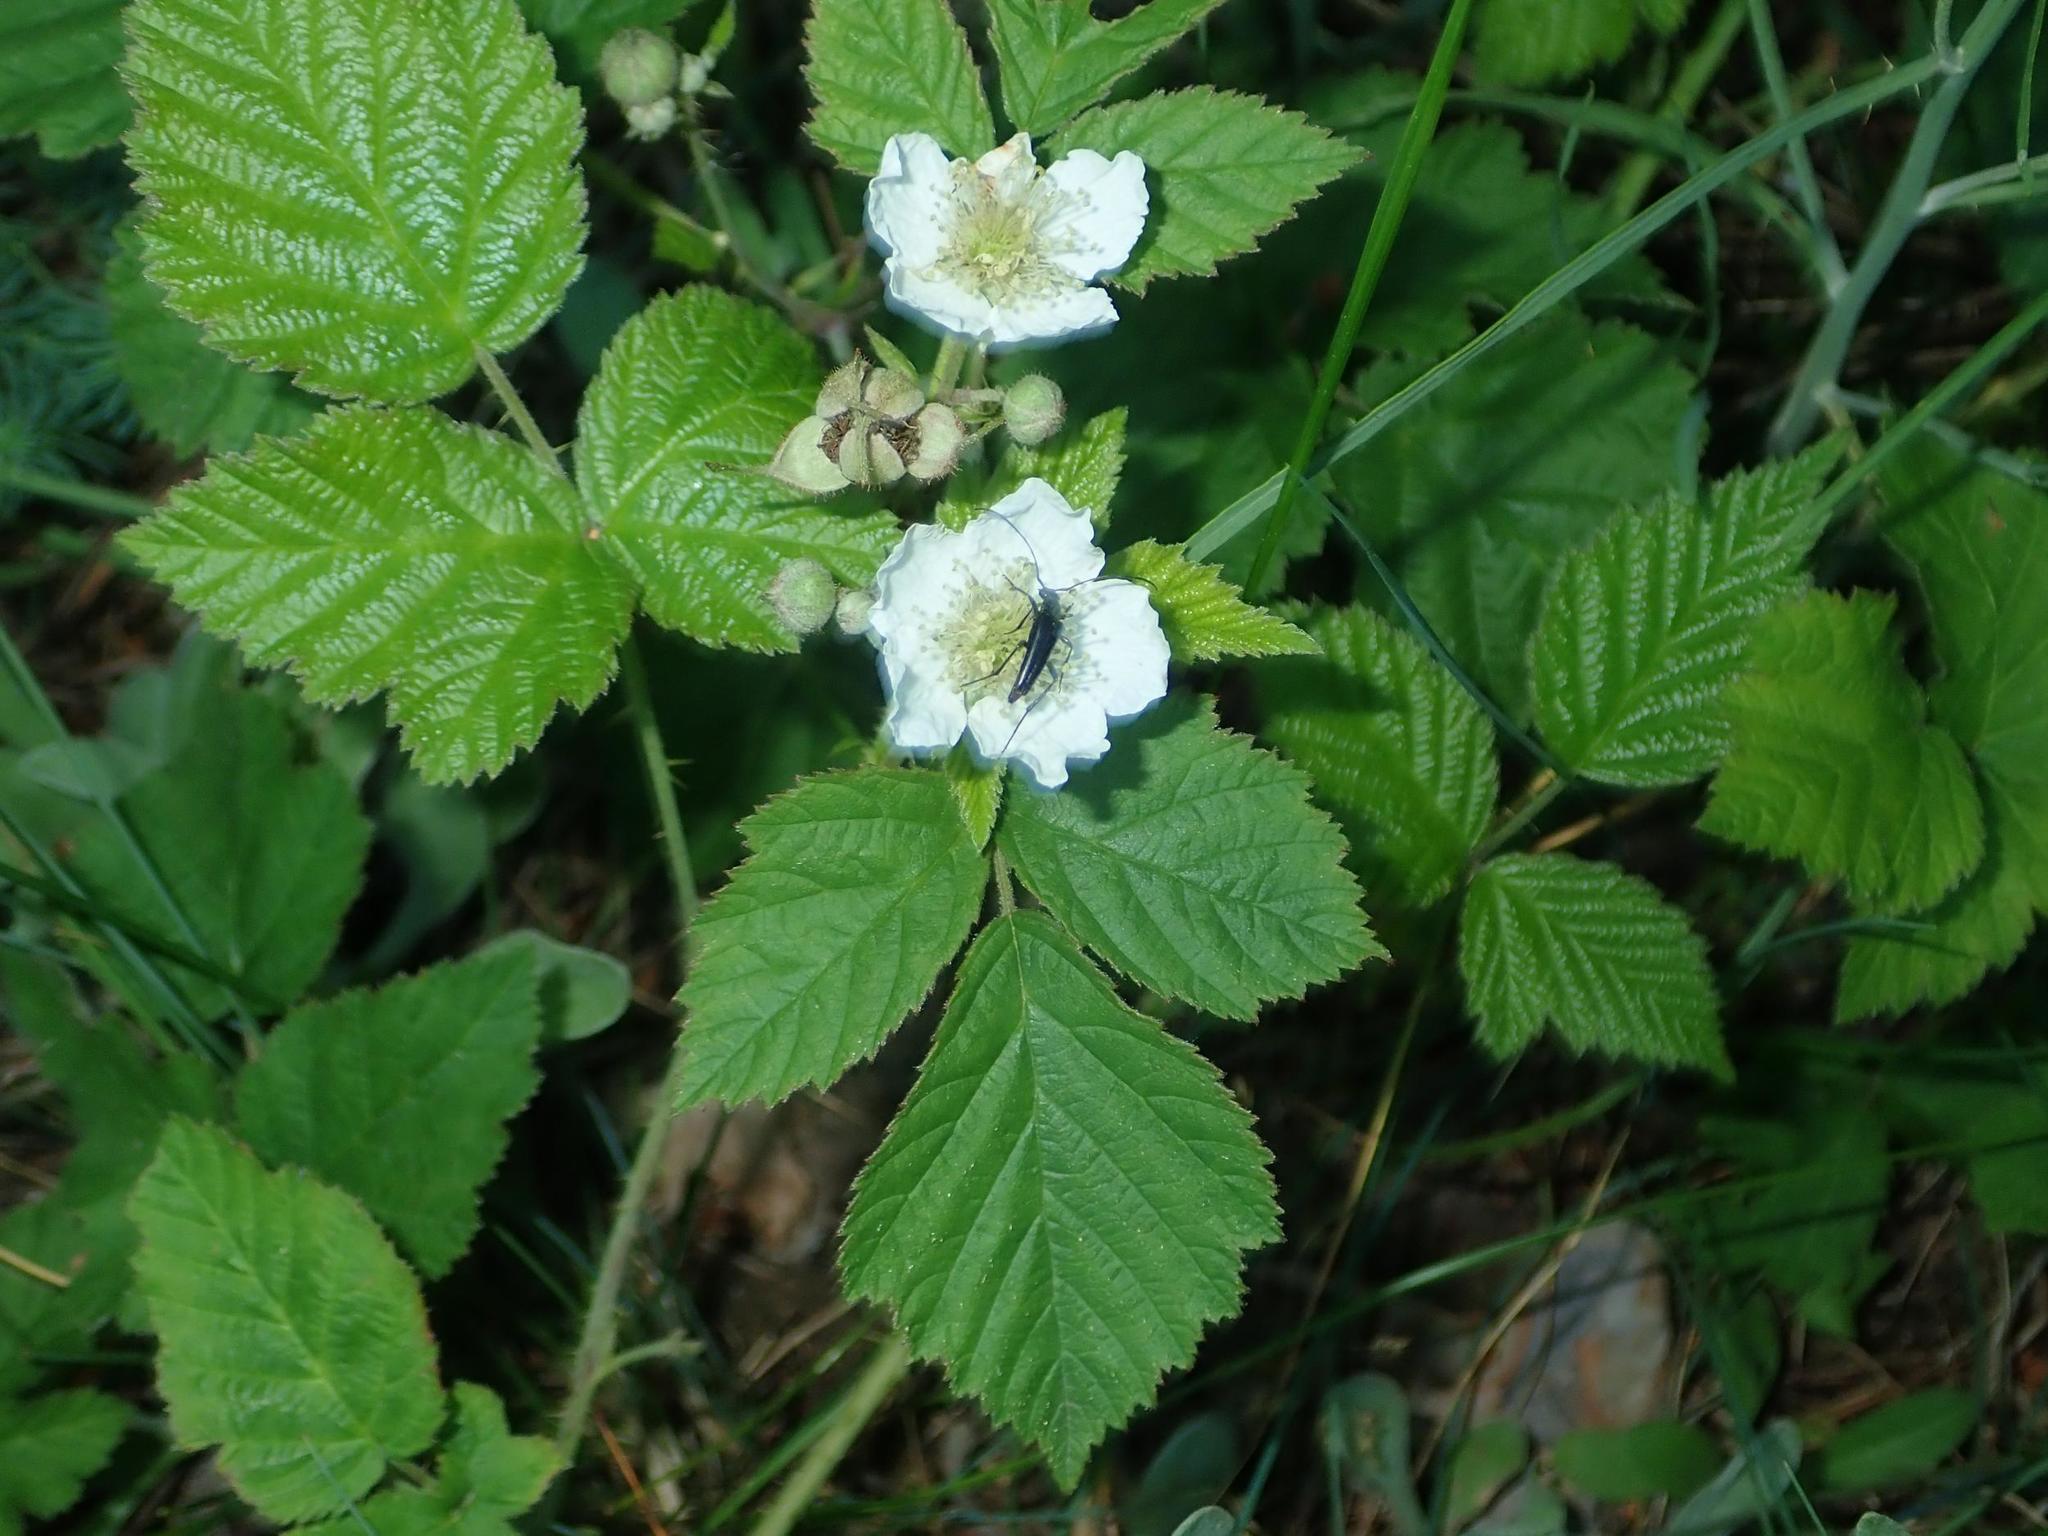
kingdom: Plantae
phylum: Tracheophyta
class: Magnoliopsida
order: Rosales
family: Rosaceae
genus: Rubus
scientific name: Rubus caesius
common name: Dewberry
